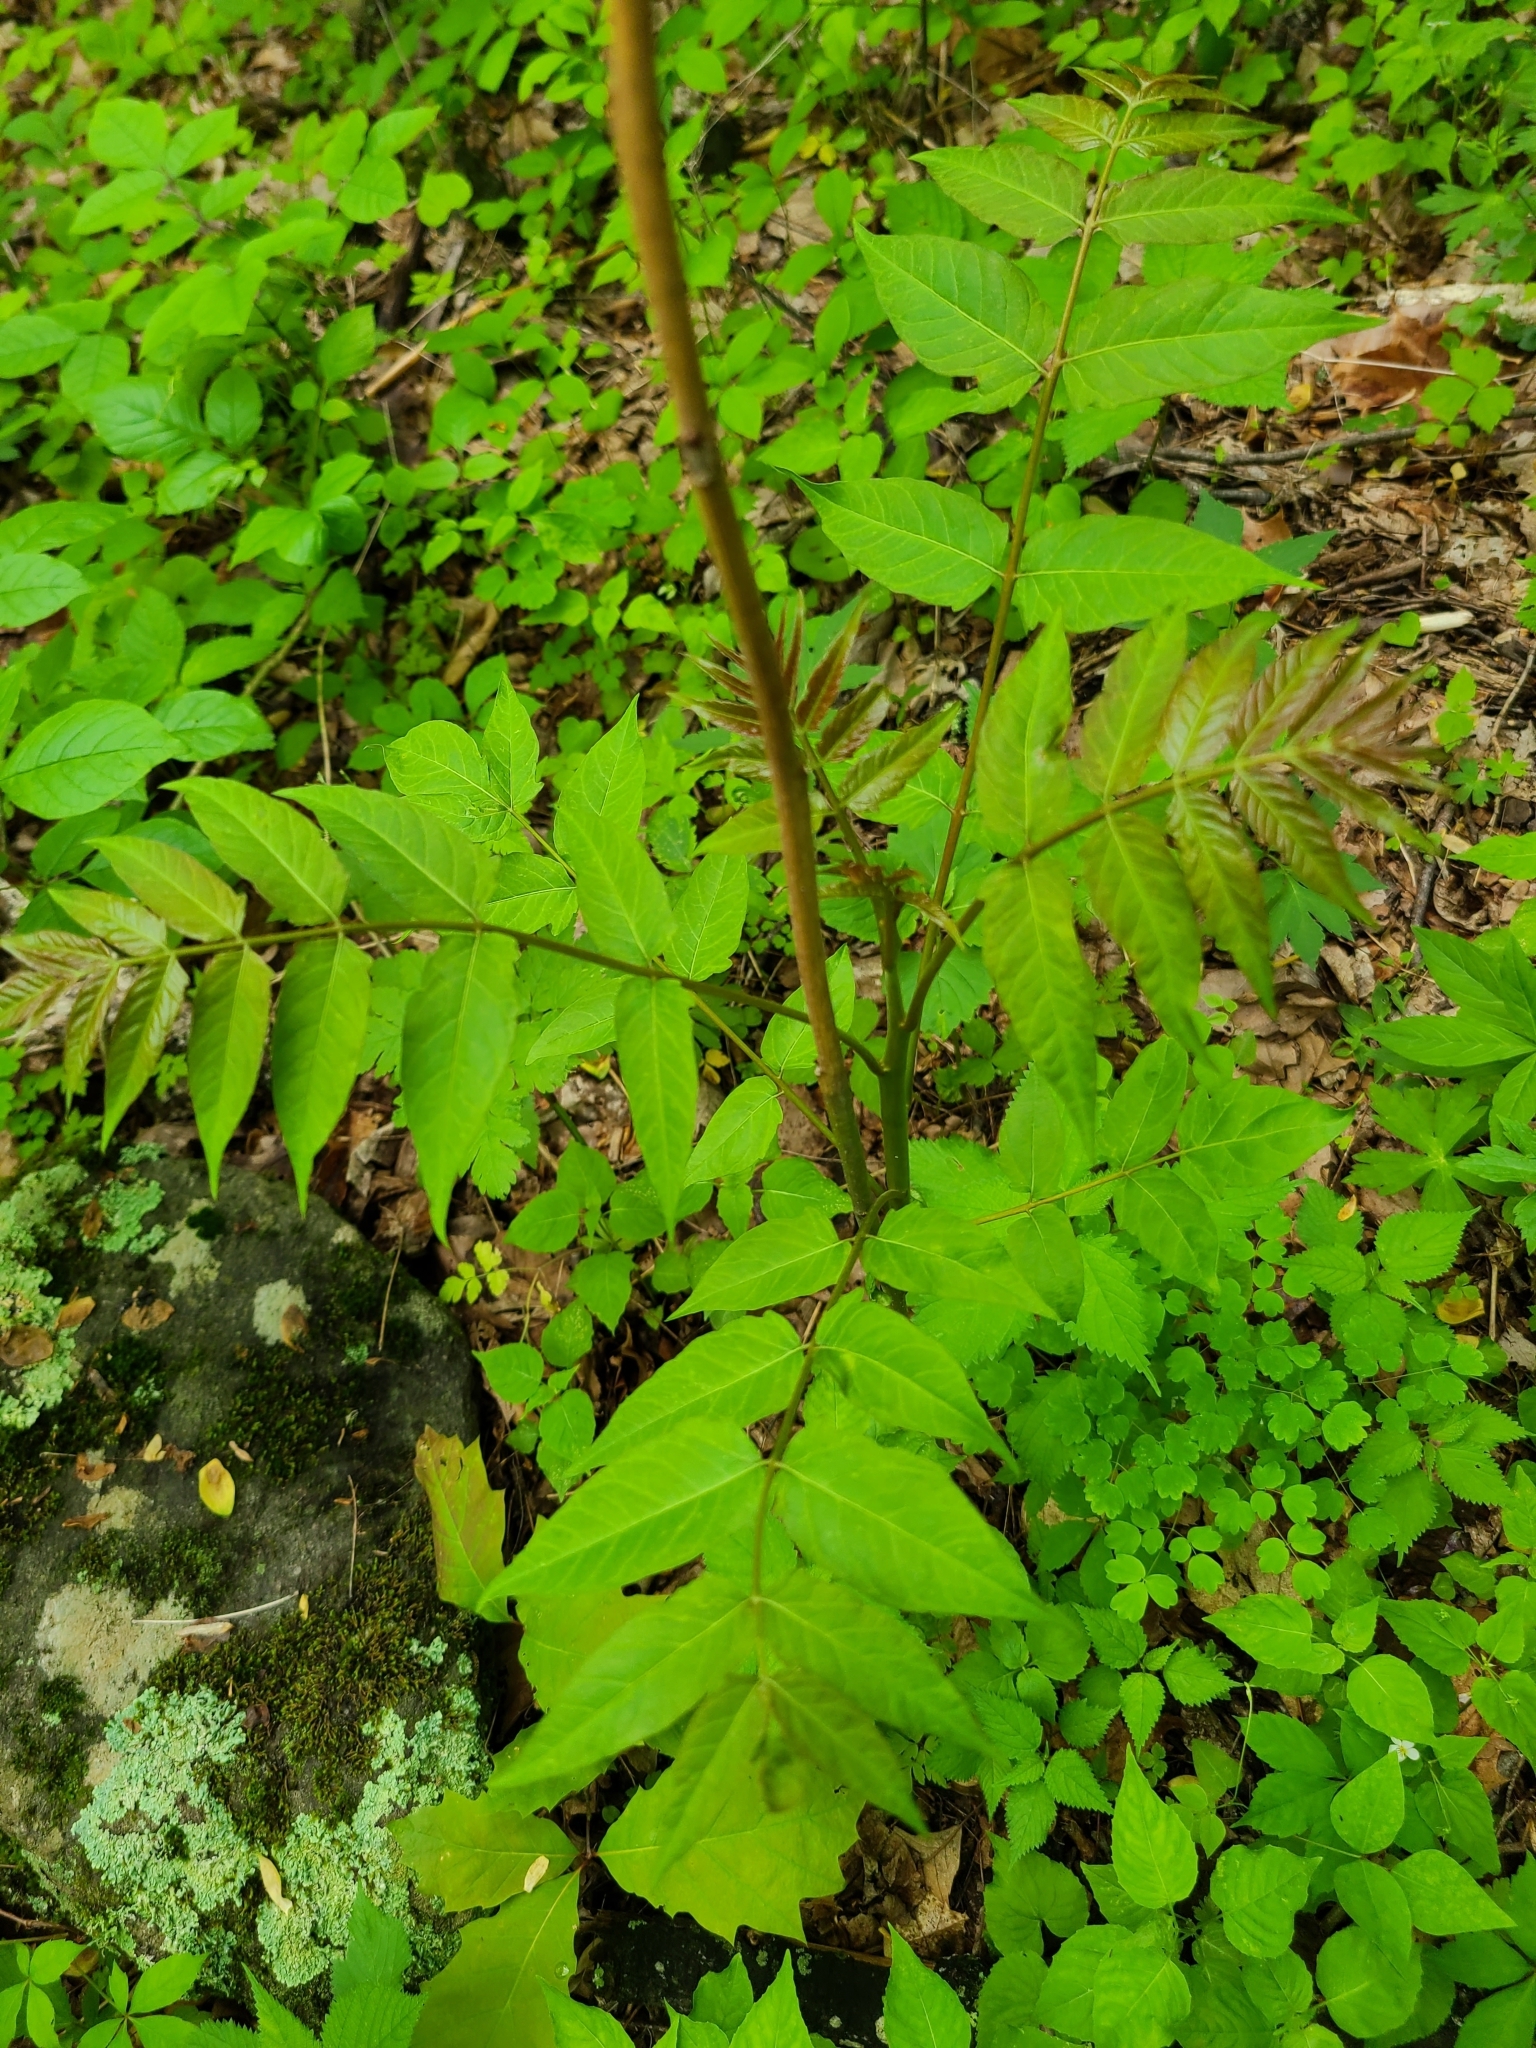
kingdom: Plantae
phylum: Tracheophyta
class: Magnoliopsida
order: Sapindales
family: Simaroubaceae
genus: Ailanthus
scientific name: Ailanthus altissima
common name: Tree-of-heaven
